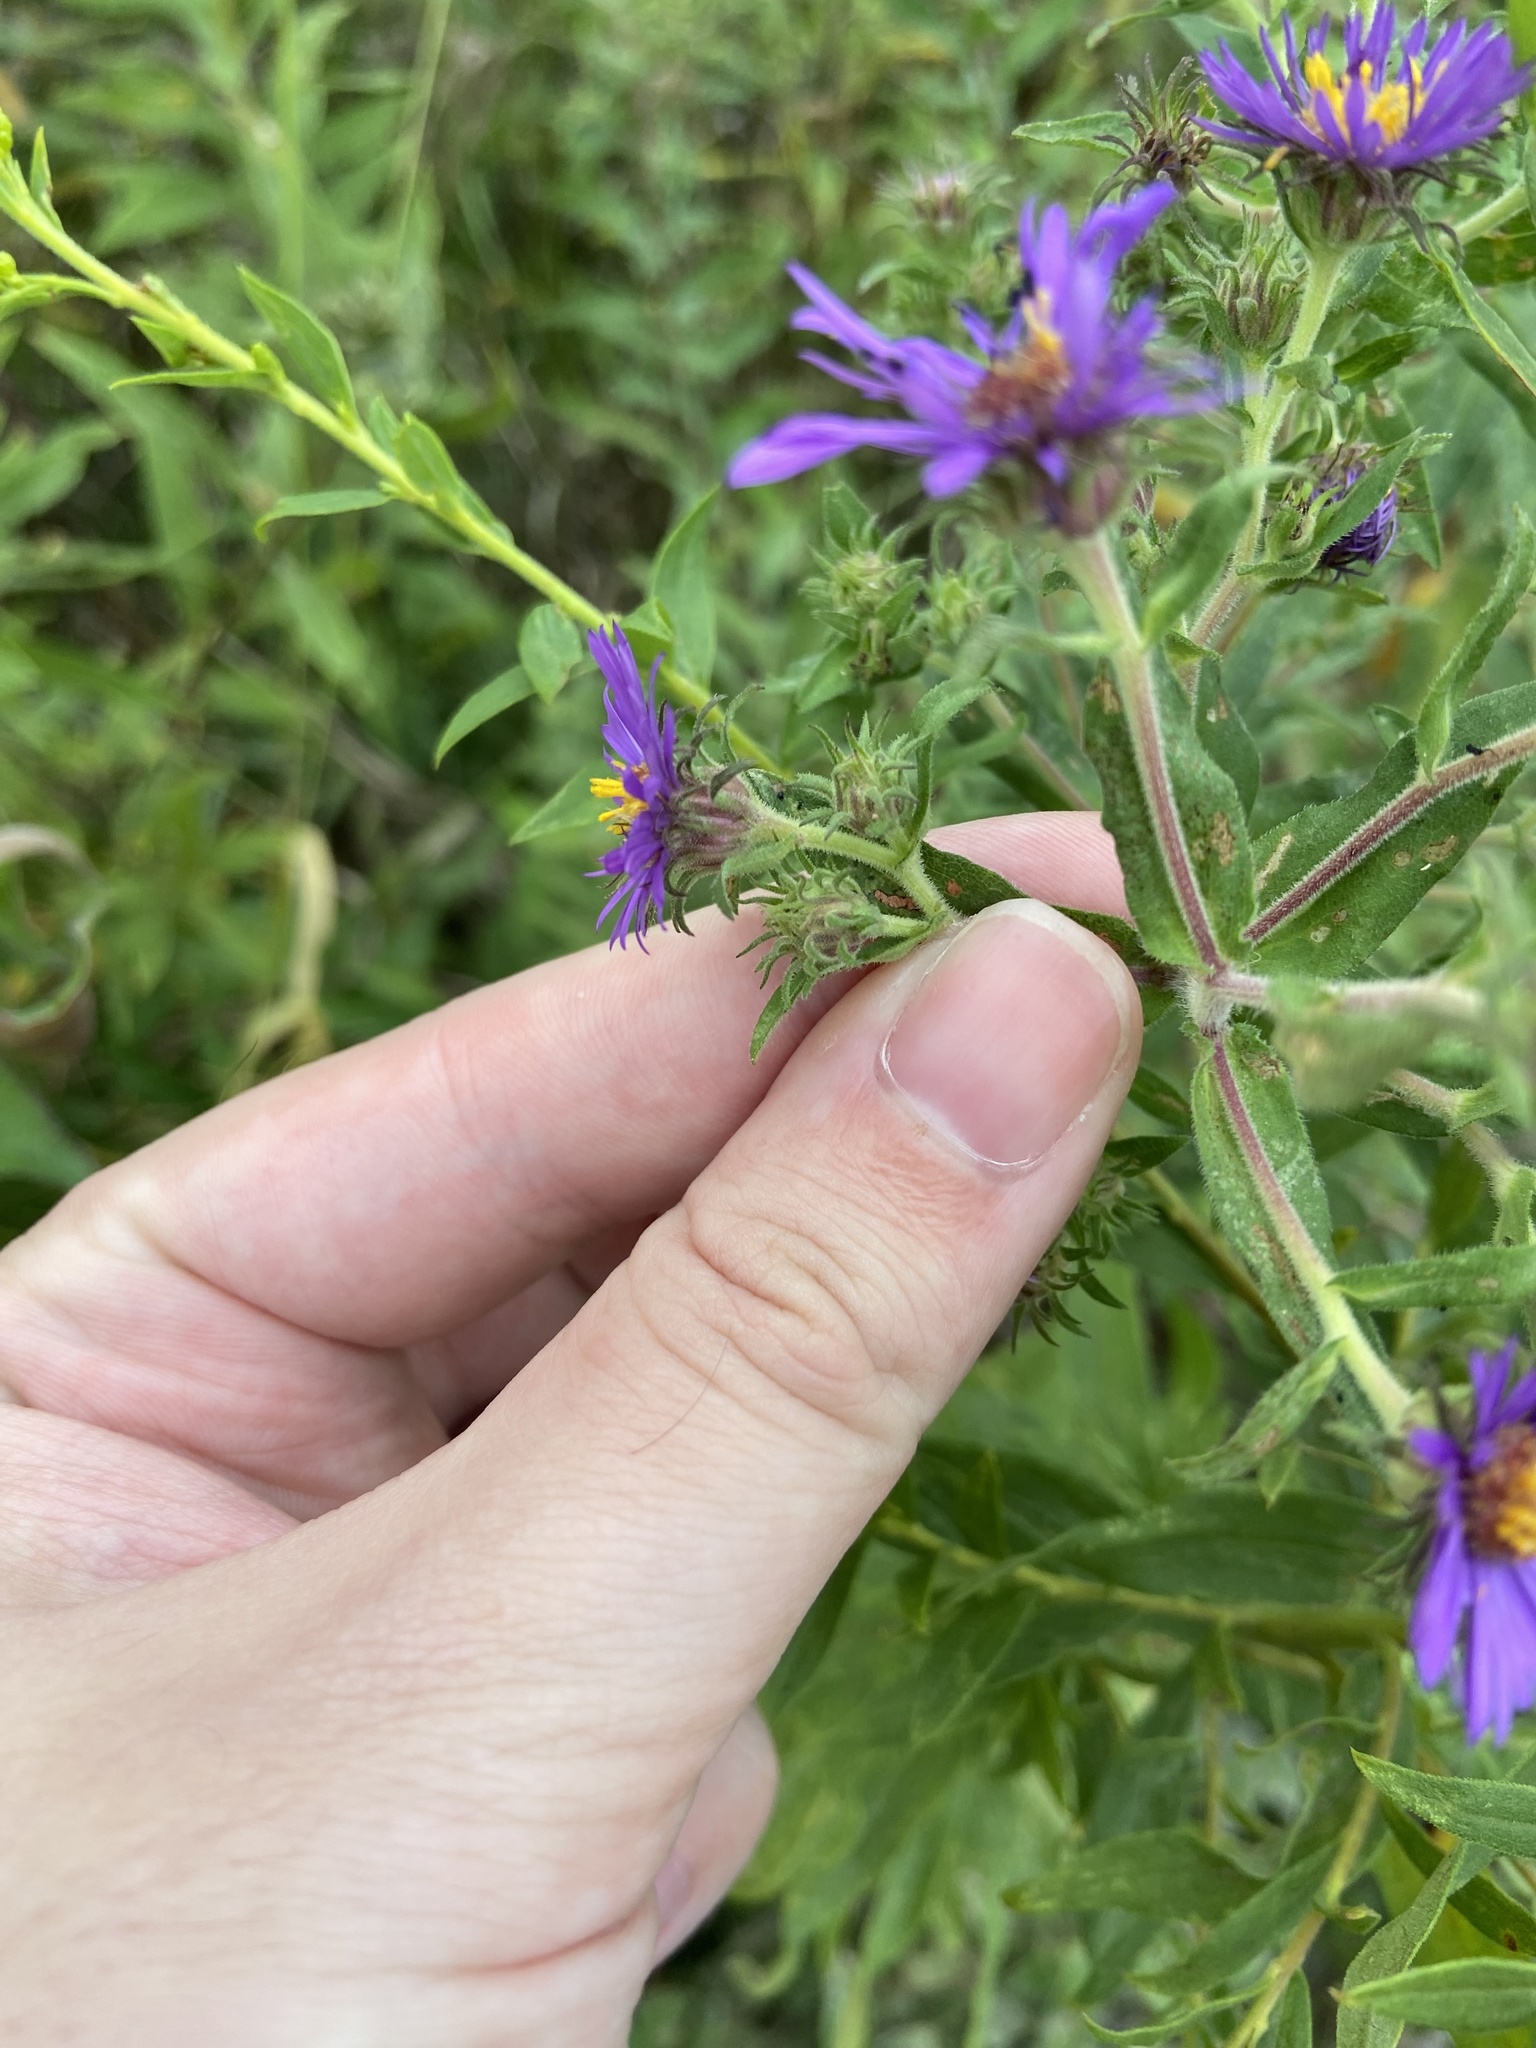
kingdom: Plantae
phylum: Tracheophyta
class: Magnoliopsida
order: Asterales
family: Asteraceae
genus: Symphyotrichum
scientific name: Symphyotrichum novae-angliae
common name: Michaelmas daisy
